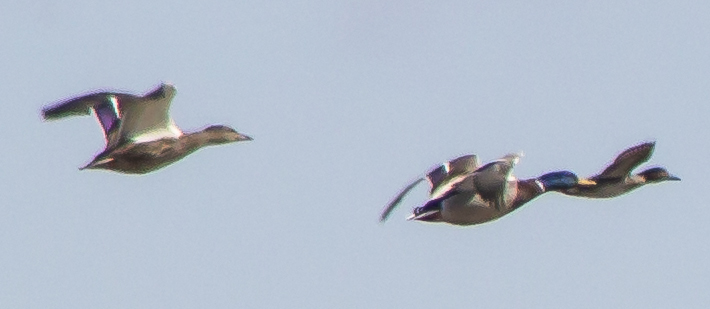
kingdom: Animalia
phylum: Chordata
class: Aves
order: Anseriformes
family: Anatidae
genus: Anas
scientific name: Anas platyrhynchos
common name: Mallard
